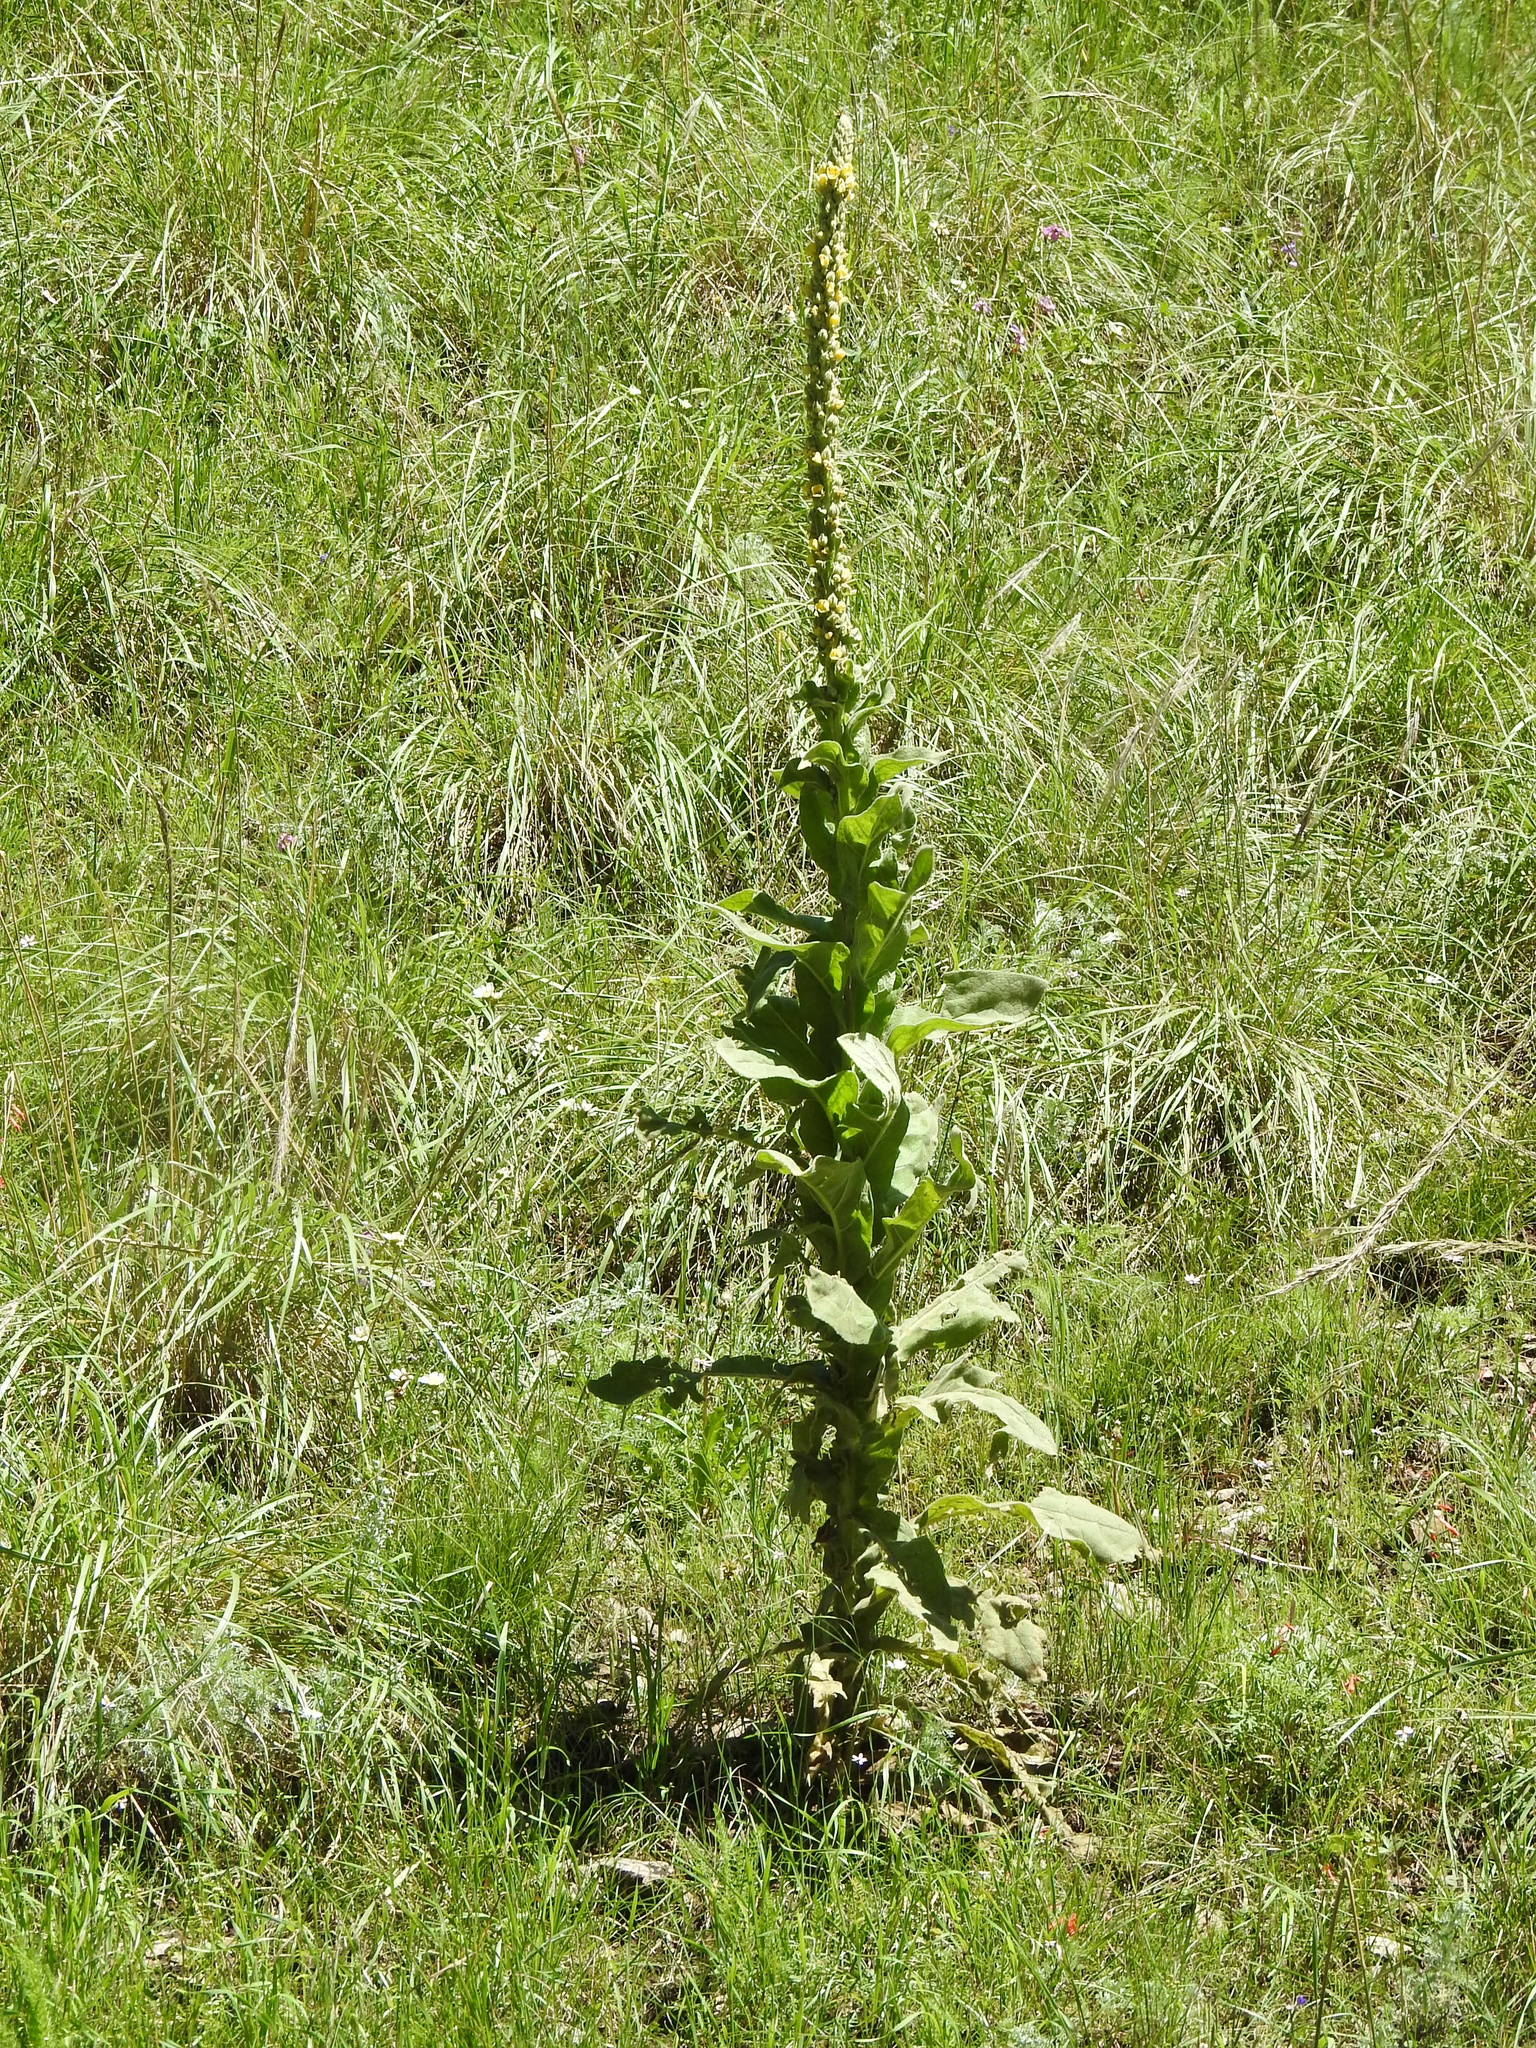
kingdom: Plantae
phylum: Tracheophyta
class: Magnoliopsida
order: Lamiales
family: Scrophulariaceae
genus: Verbascum
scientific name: Verbascum thapsus
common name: Common mullein
